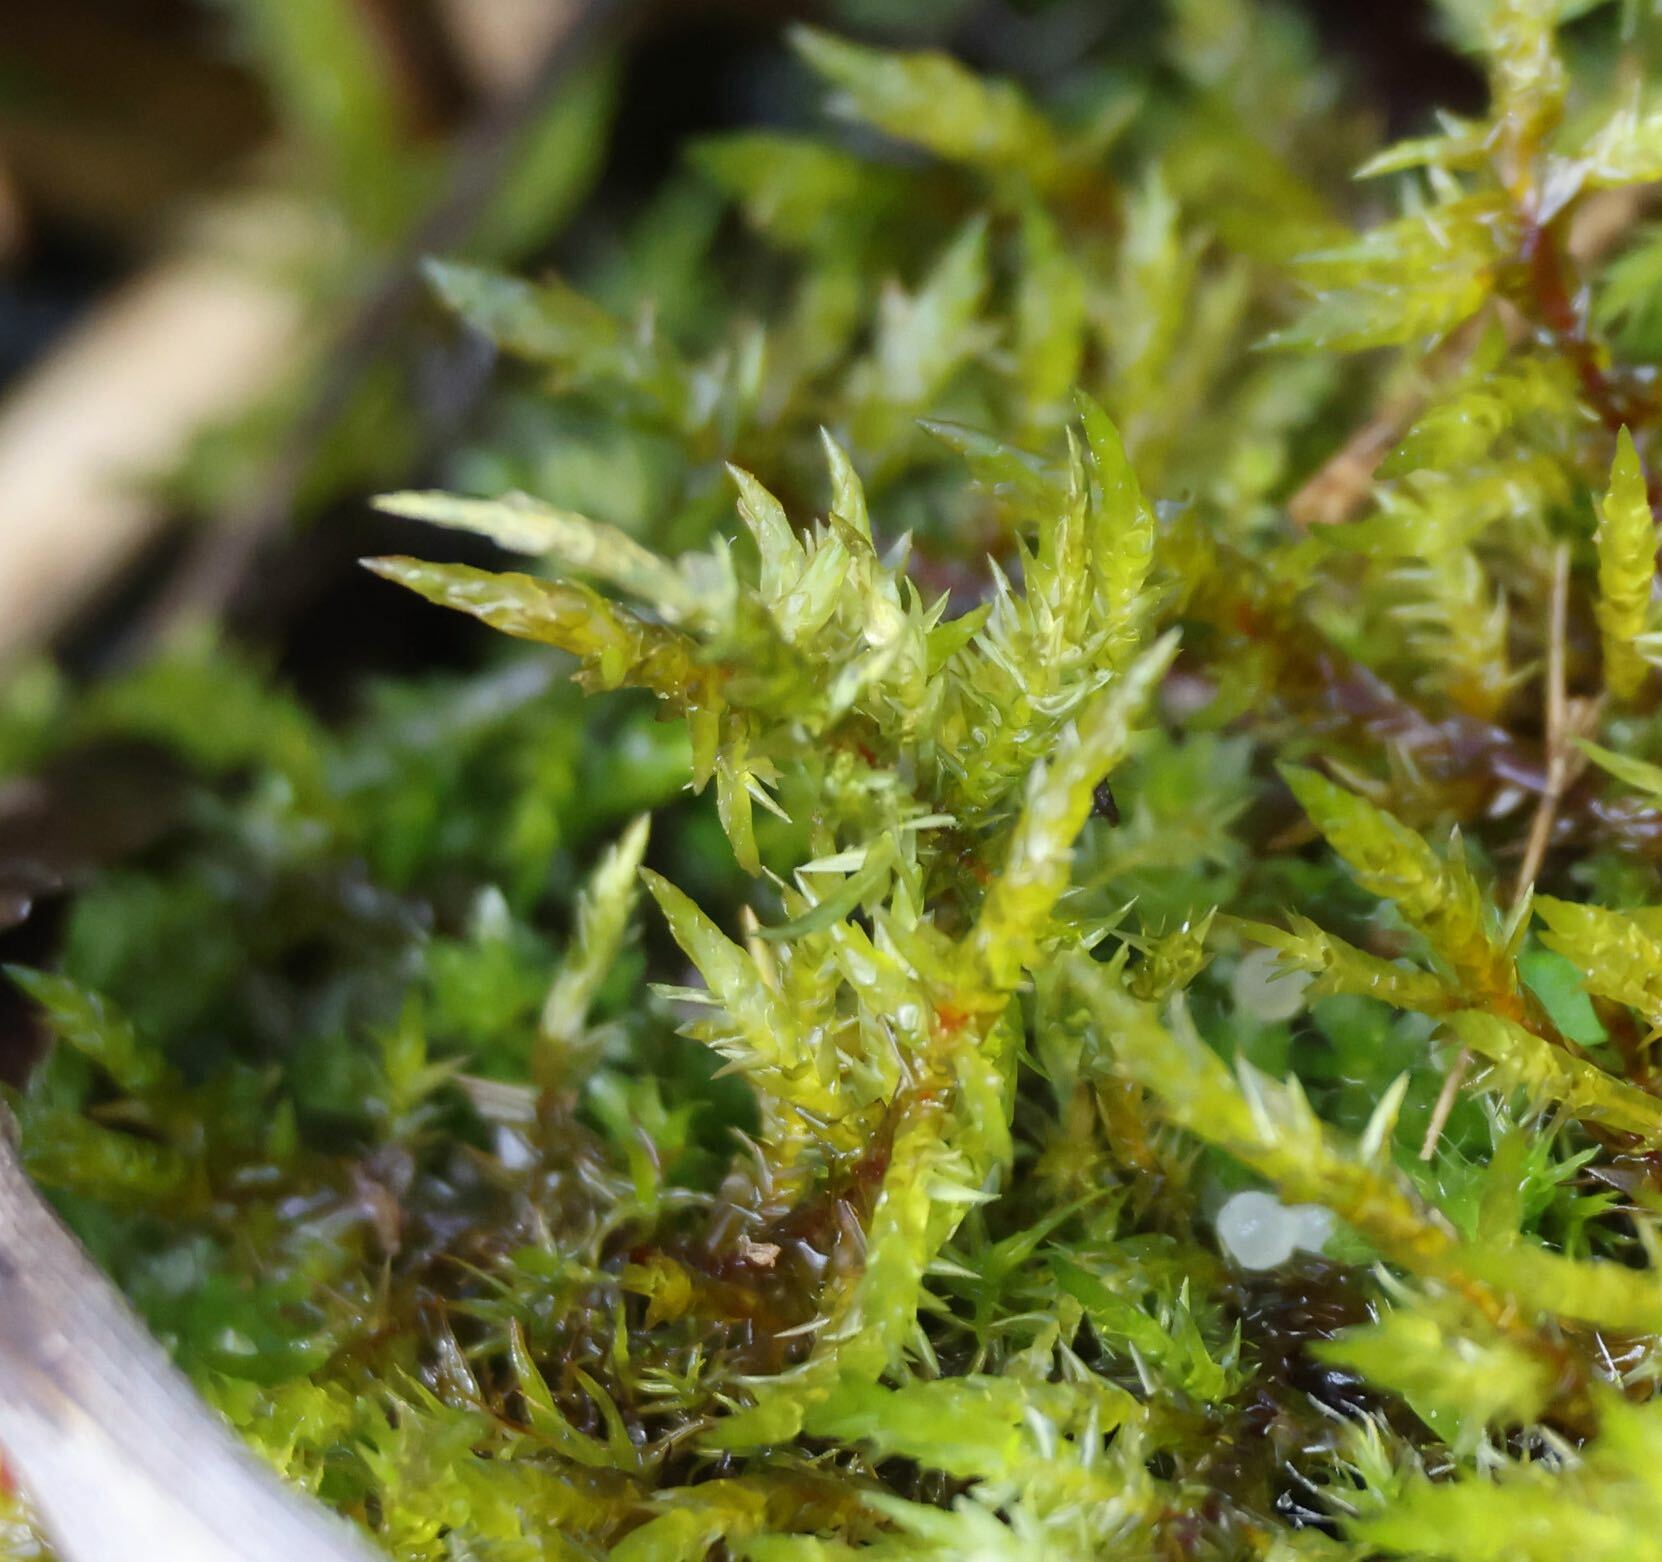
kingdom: Plantae
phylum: Bryophyta
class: Bryopsida
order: Hypnales
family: Pylaisiaceae
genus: Calliergonella
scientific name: Calliergonella cuspidata
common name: Common large wetland moss
